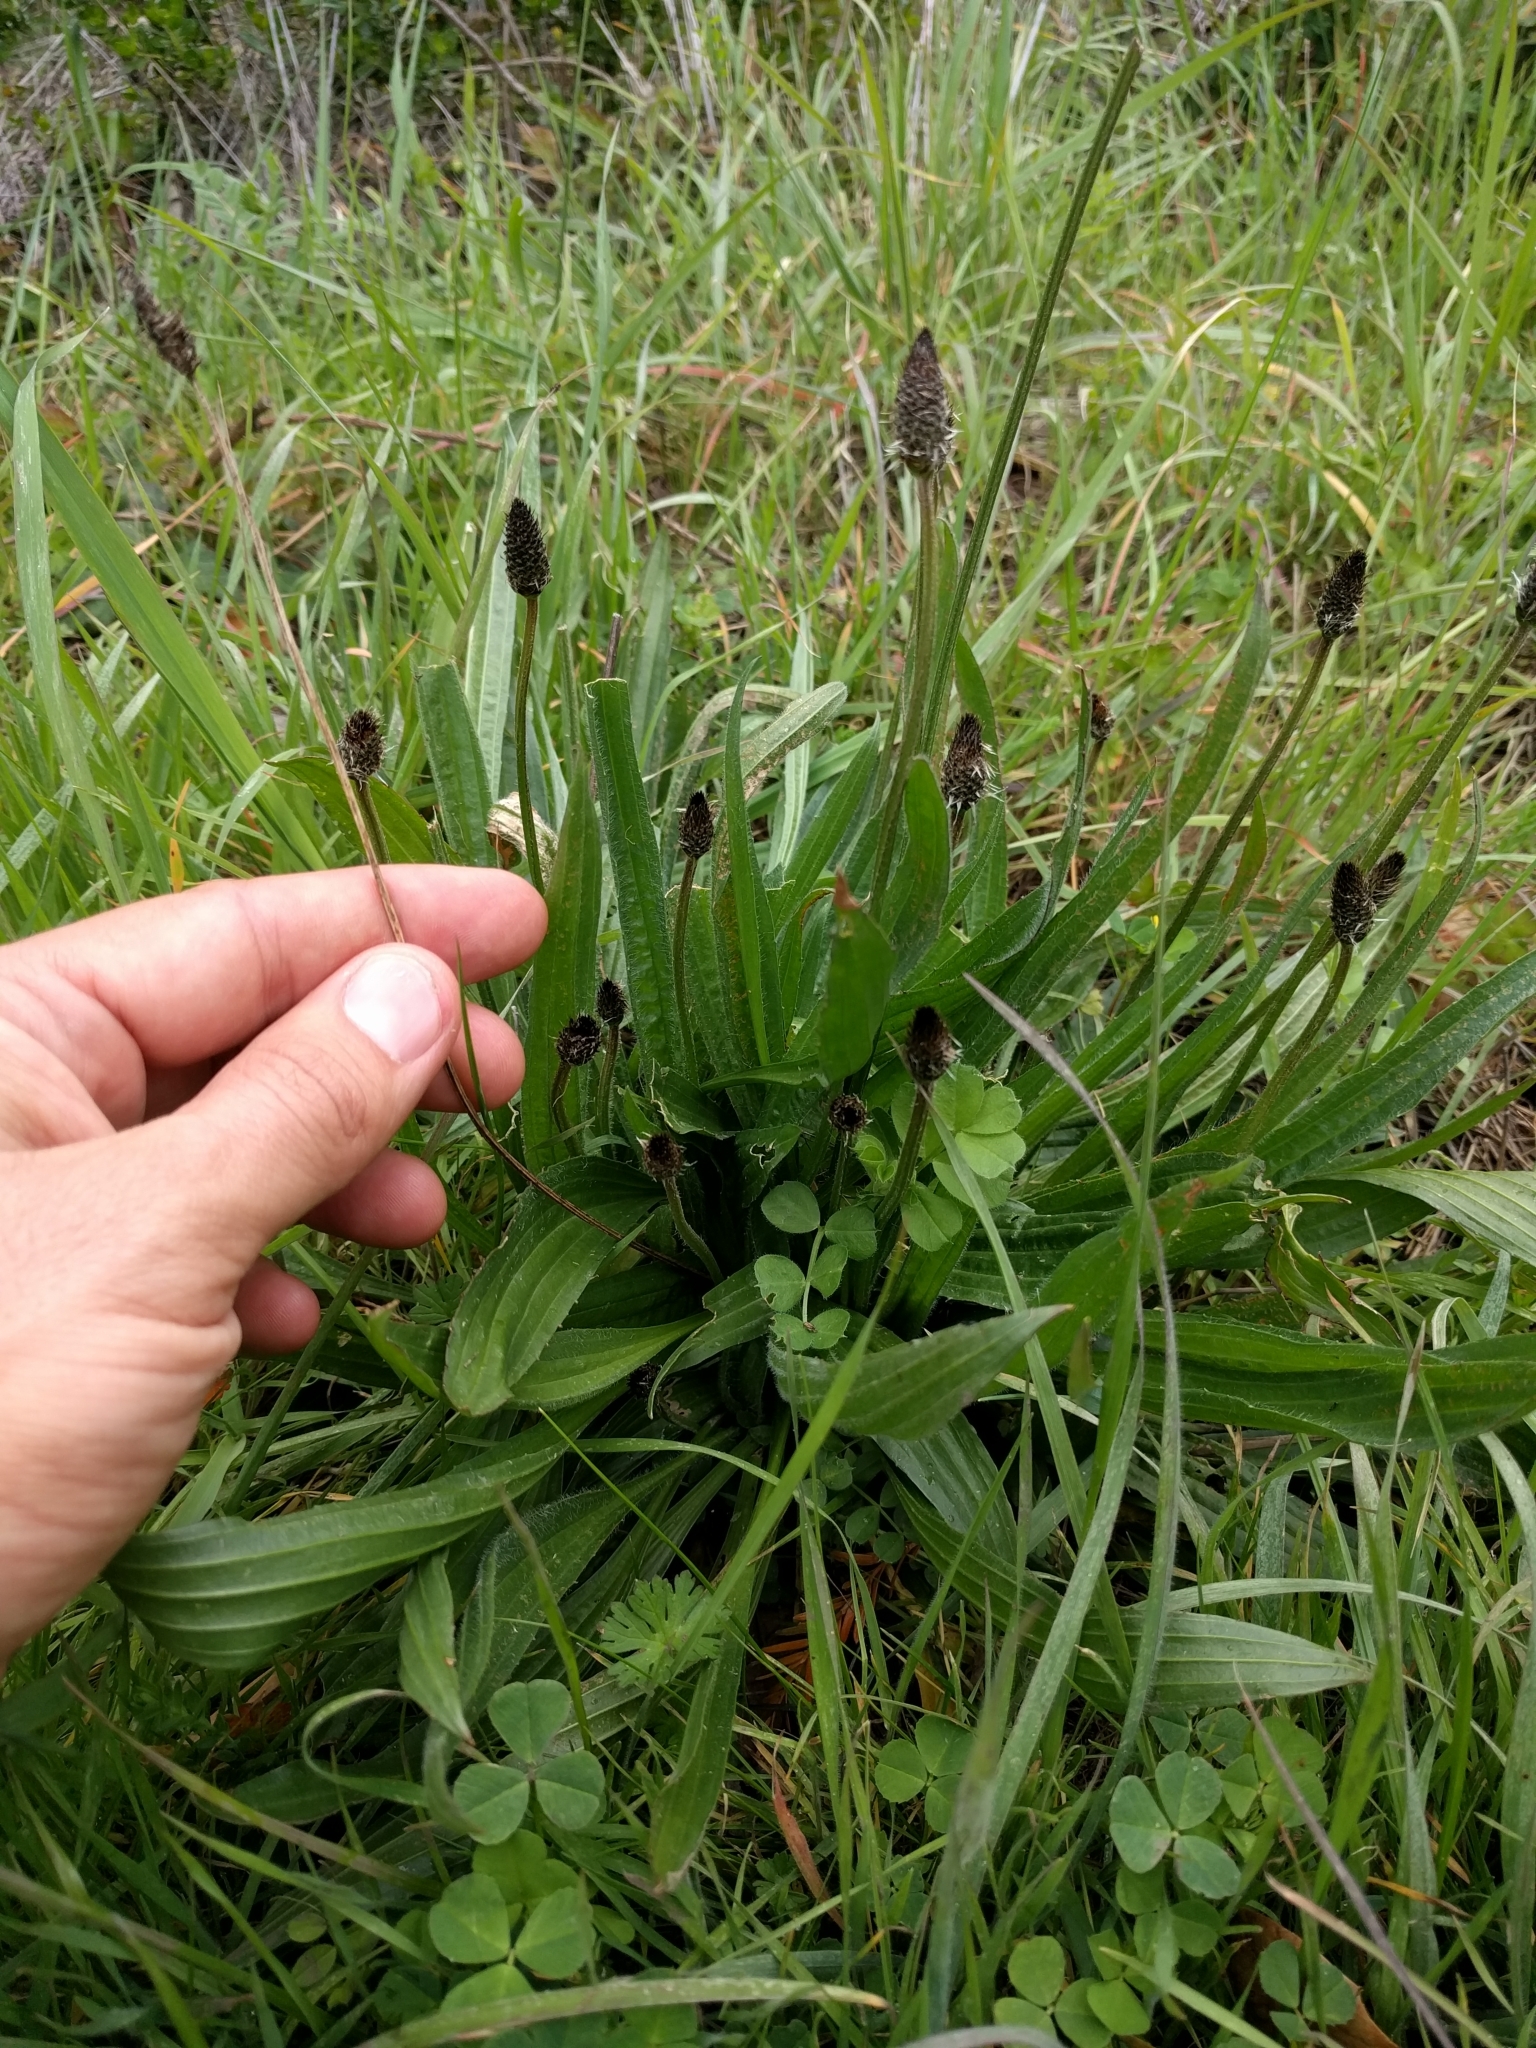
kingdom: Plantae
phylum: Tracheophyta
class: Magnoliopsida
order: Lamiales
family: Plantaginaceae
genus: Plantago
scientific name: Plantago lanceolata
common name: Ribwort plantain
